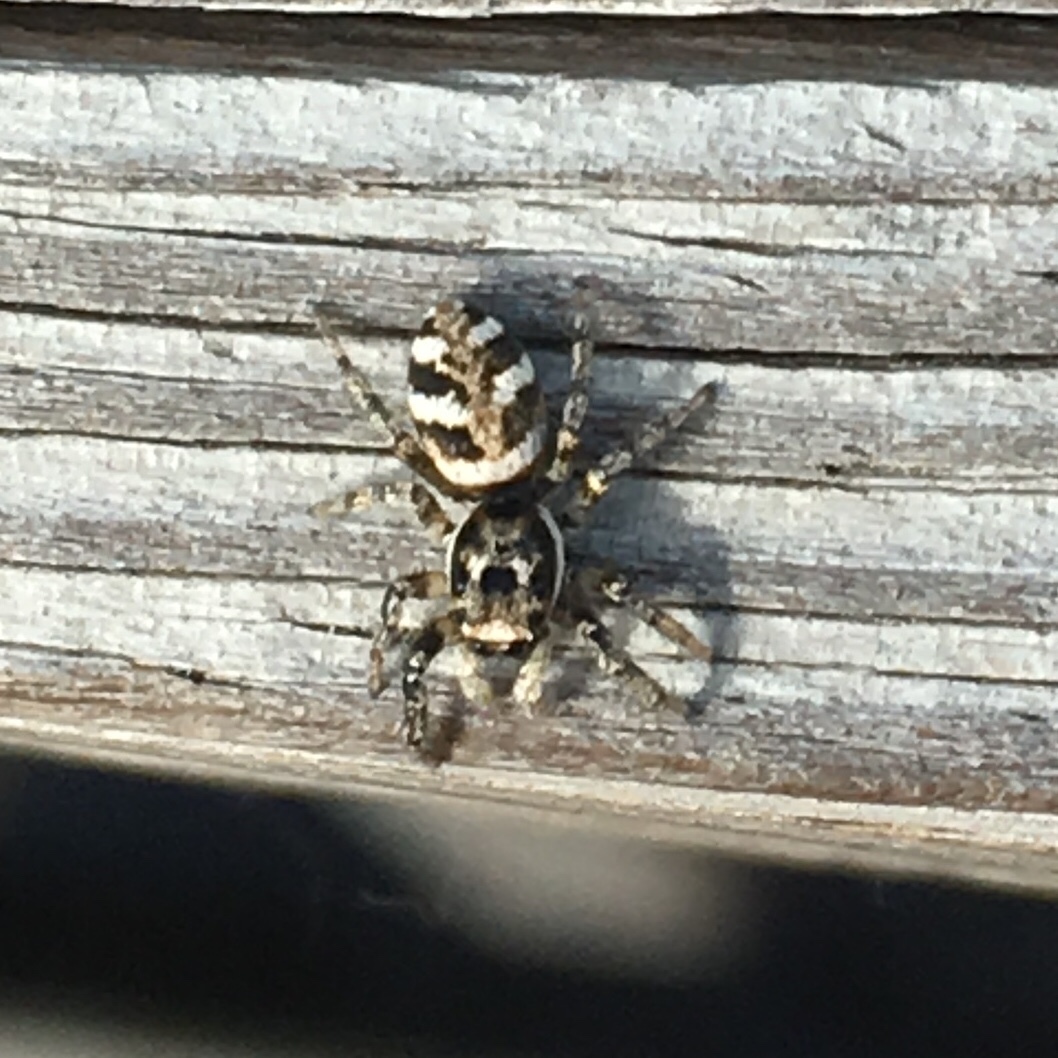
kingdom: Animalia
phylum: Arthropoda
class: Arachnida
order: Araneae
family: Salticidae
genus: Salticus
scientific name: Salticus scenicus
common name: Zebra jumper
